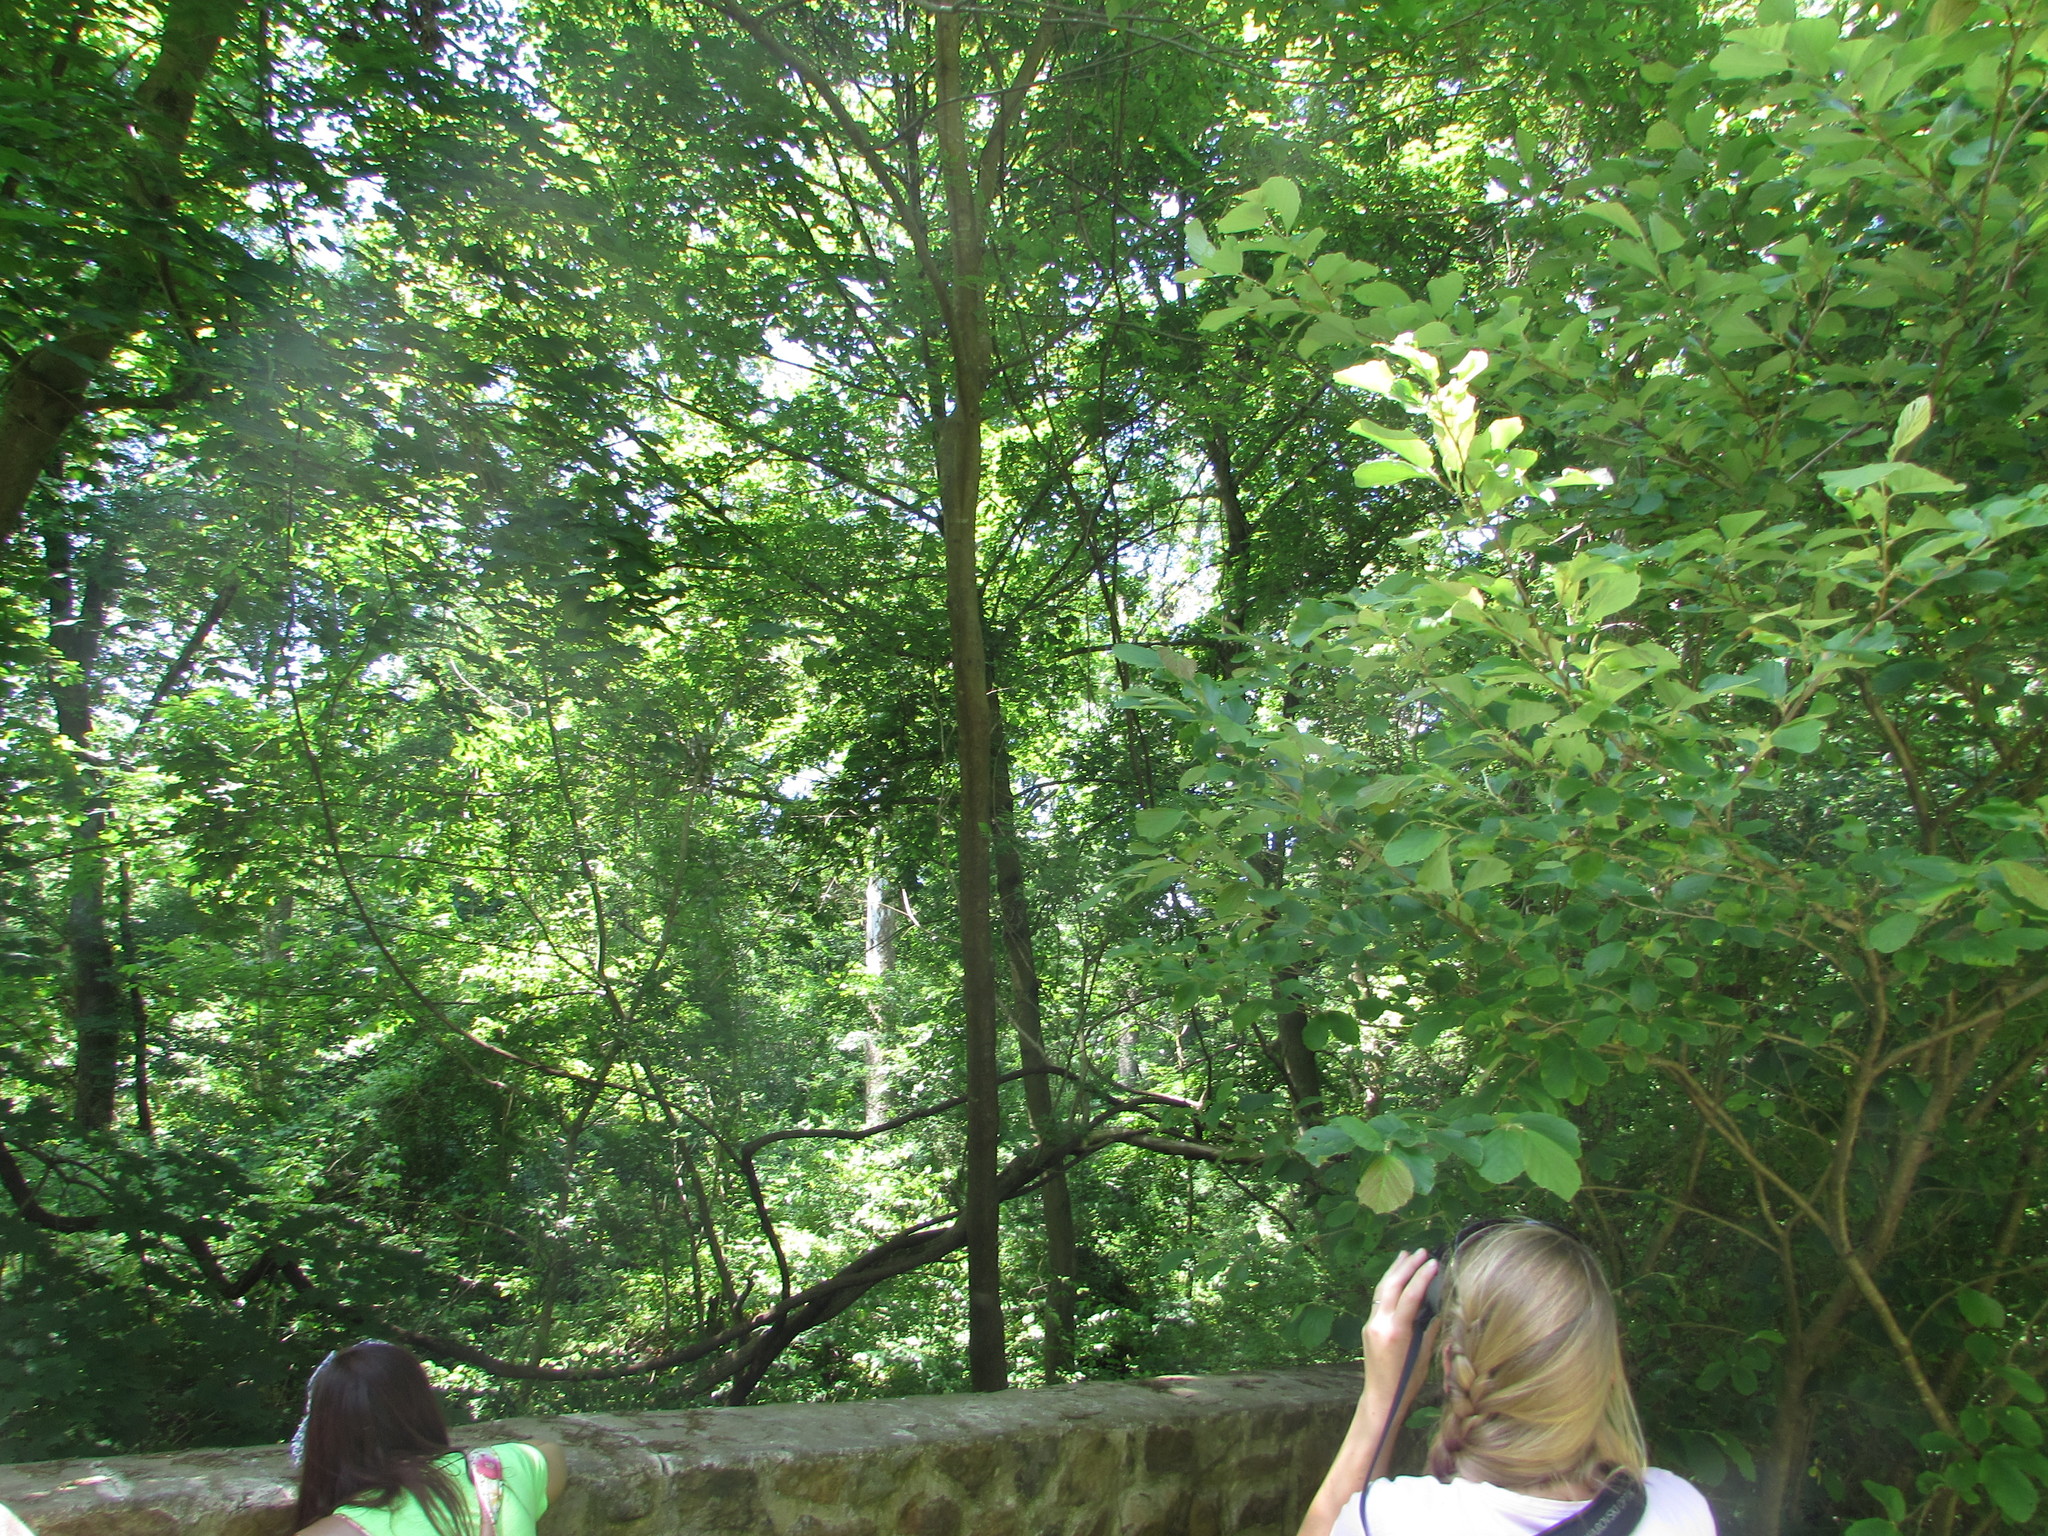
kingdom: Animalia
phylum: Chordata
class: Aves
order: Strigiformes
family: Strigidae
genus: Strix
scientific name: Strix varia
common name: Barred owl
